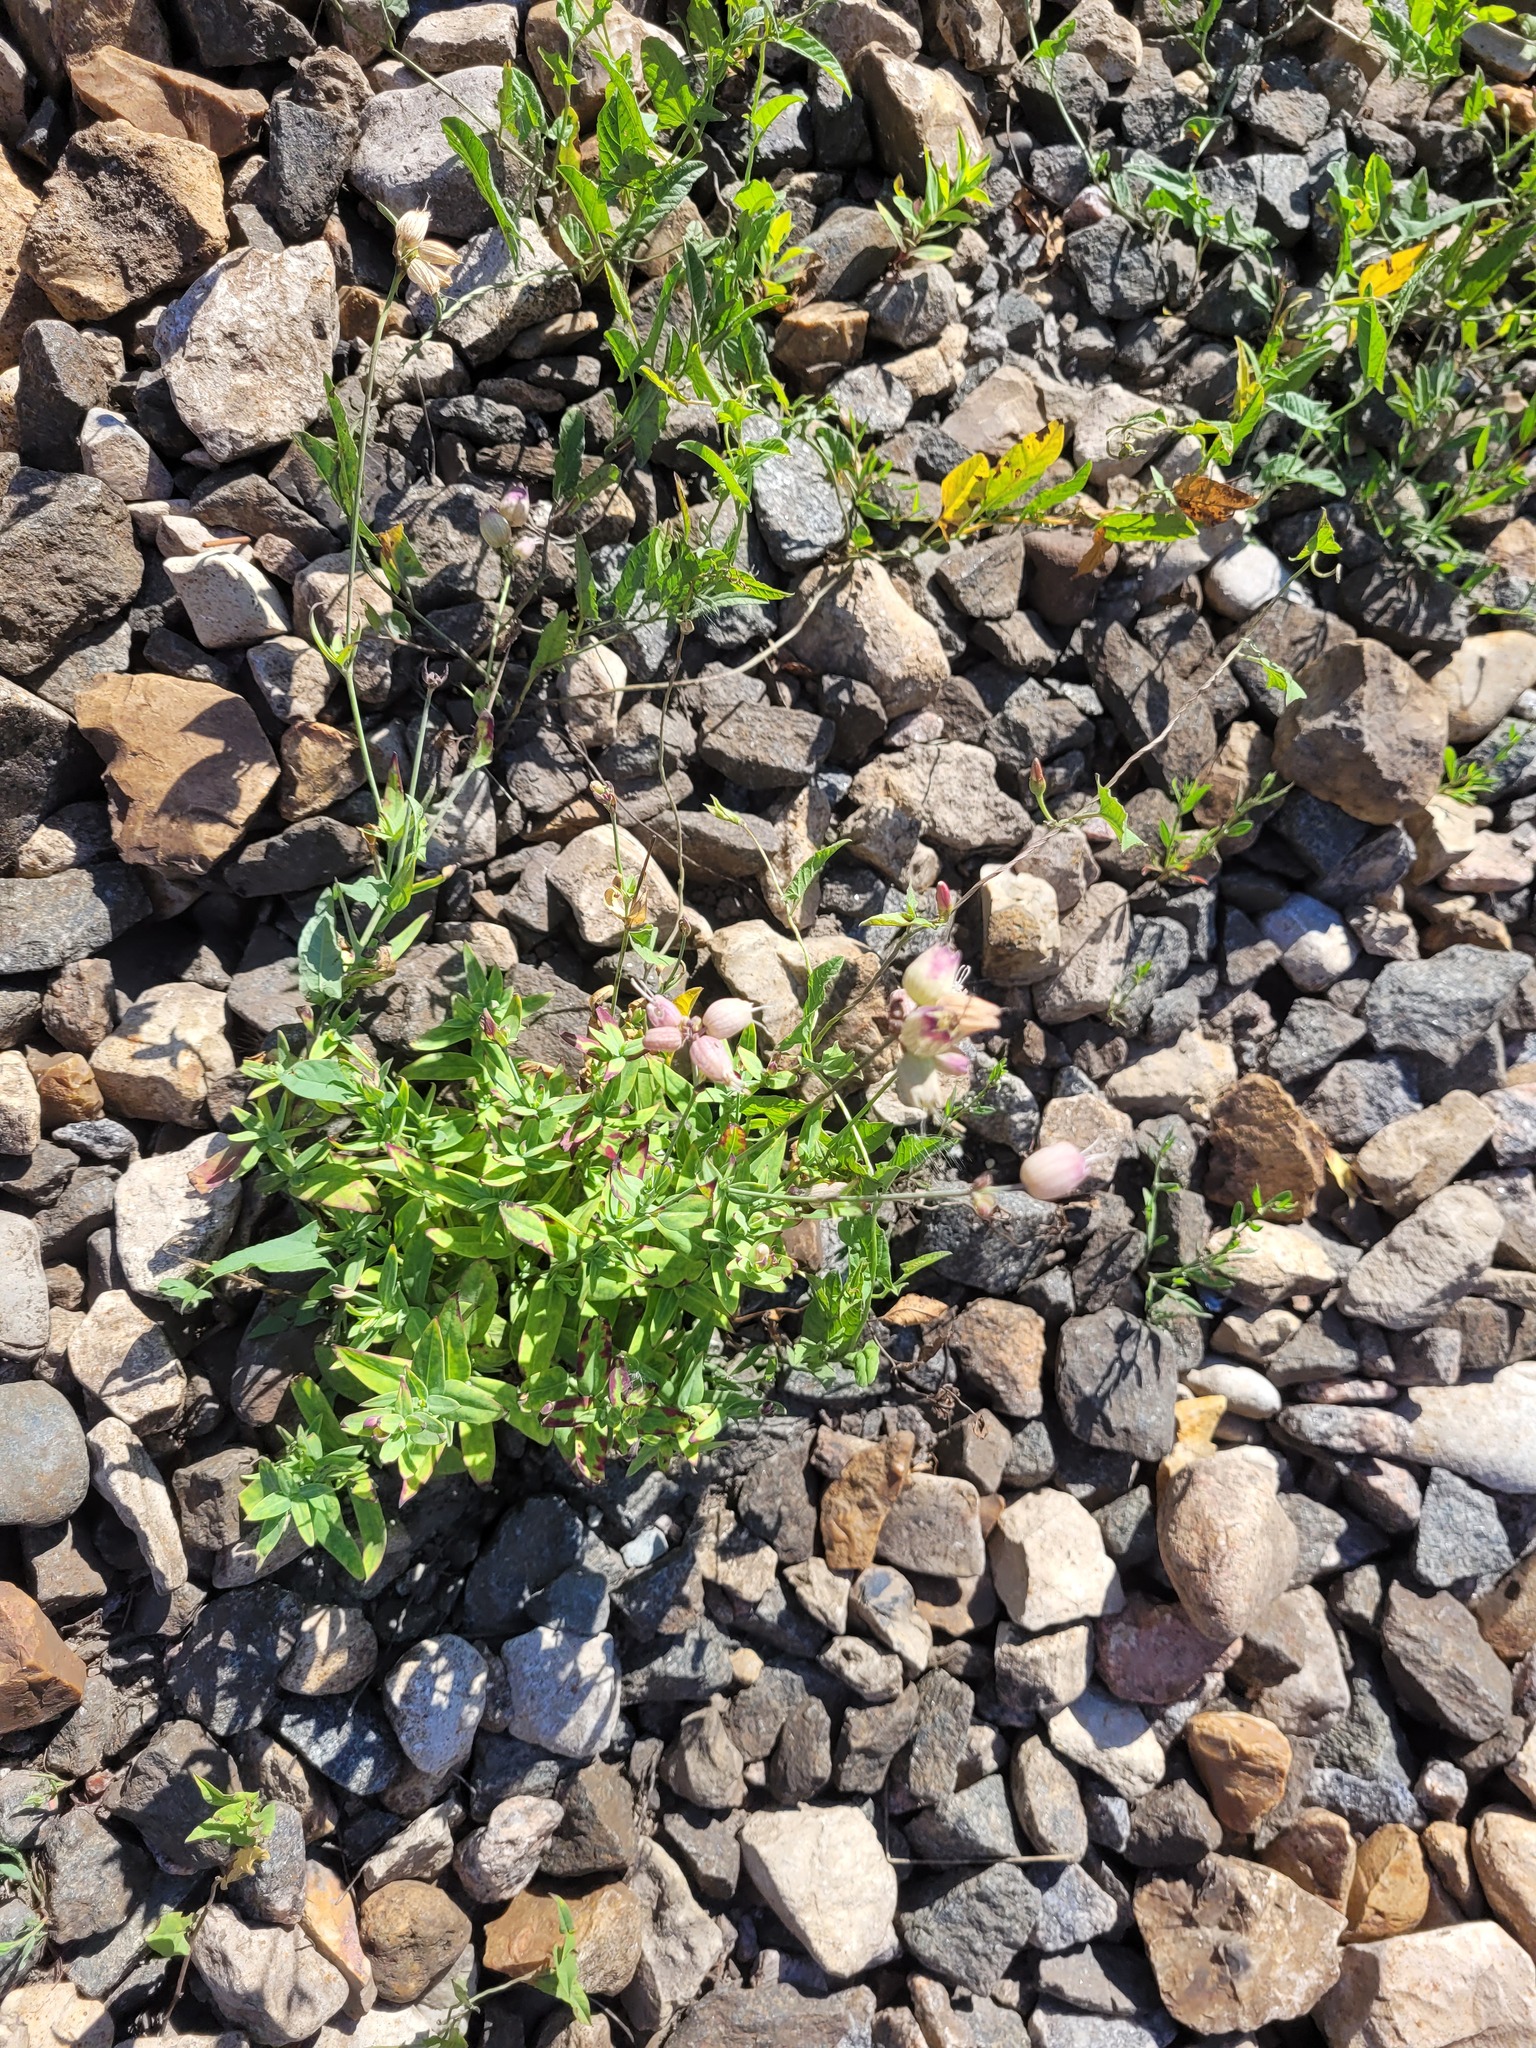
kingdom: Plantae
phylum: Tracheophyta
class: Magnoliopsida
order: Caryophyllales
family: Caryophyllaceae
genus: Silene
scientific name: Silene vulgaris
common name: Bladder campion
